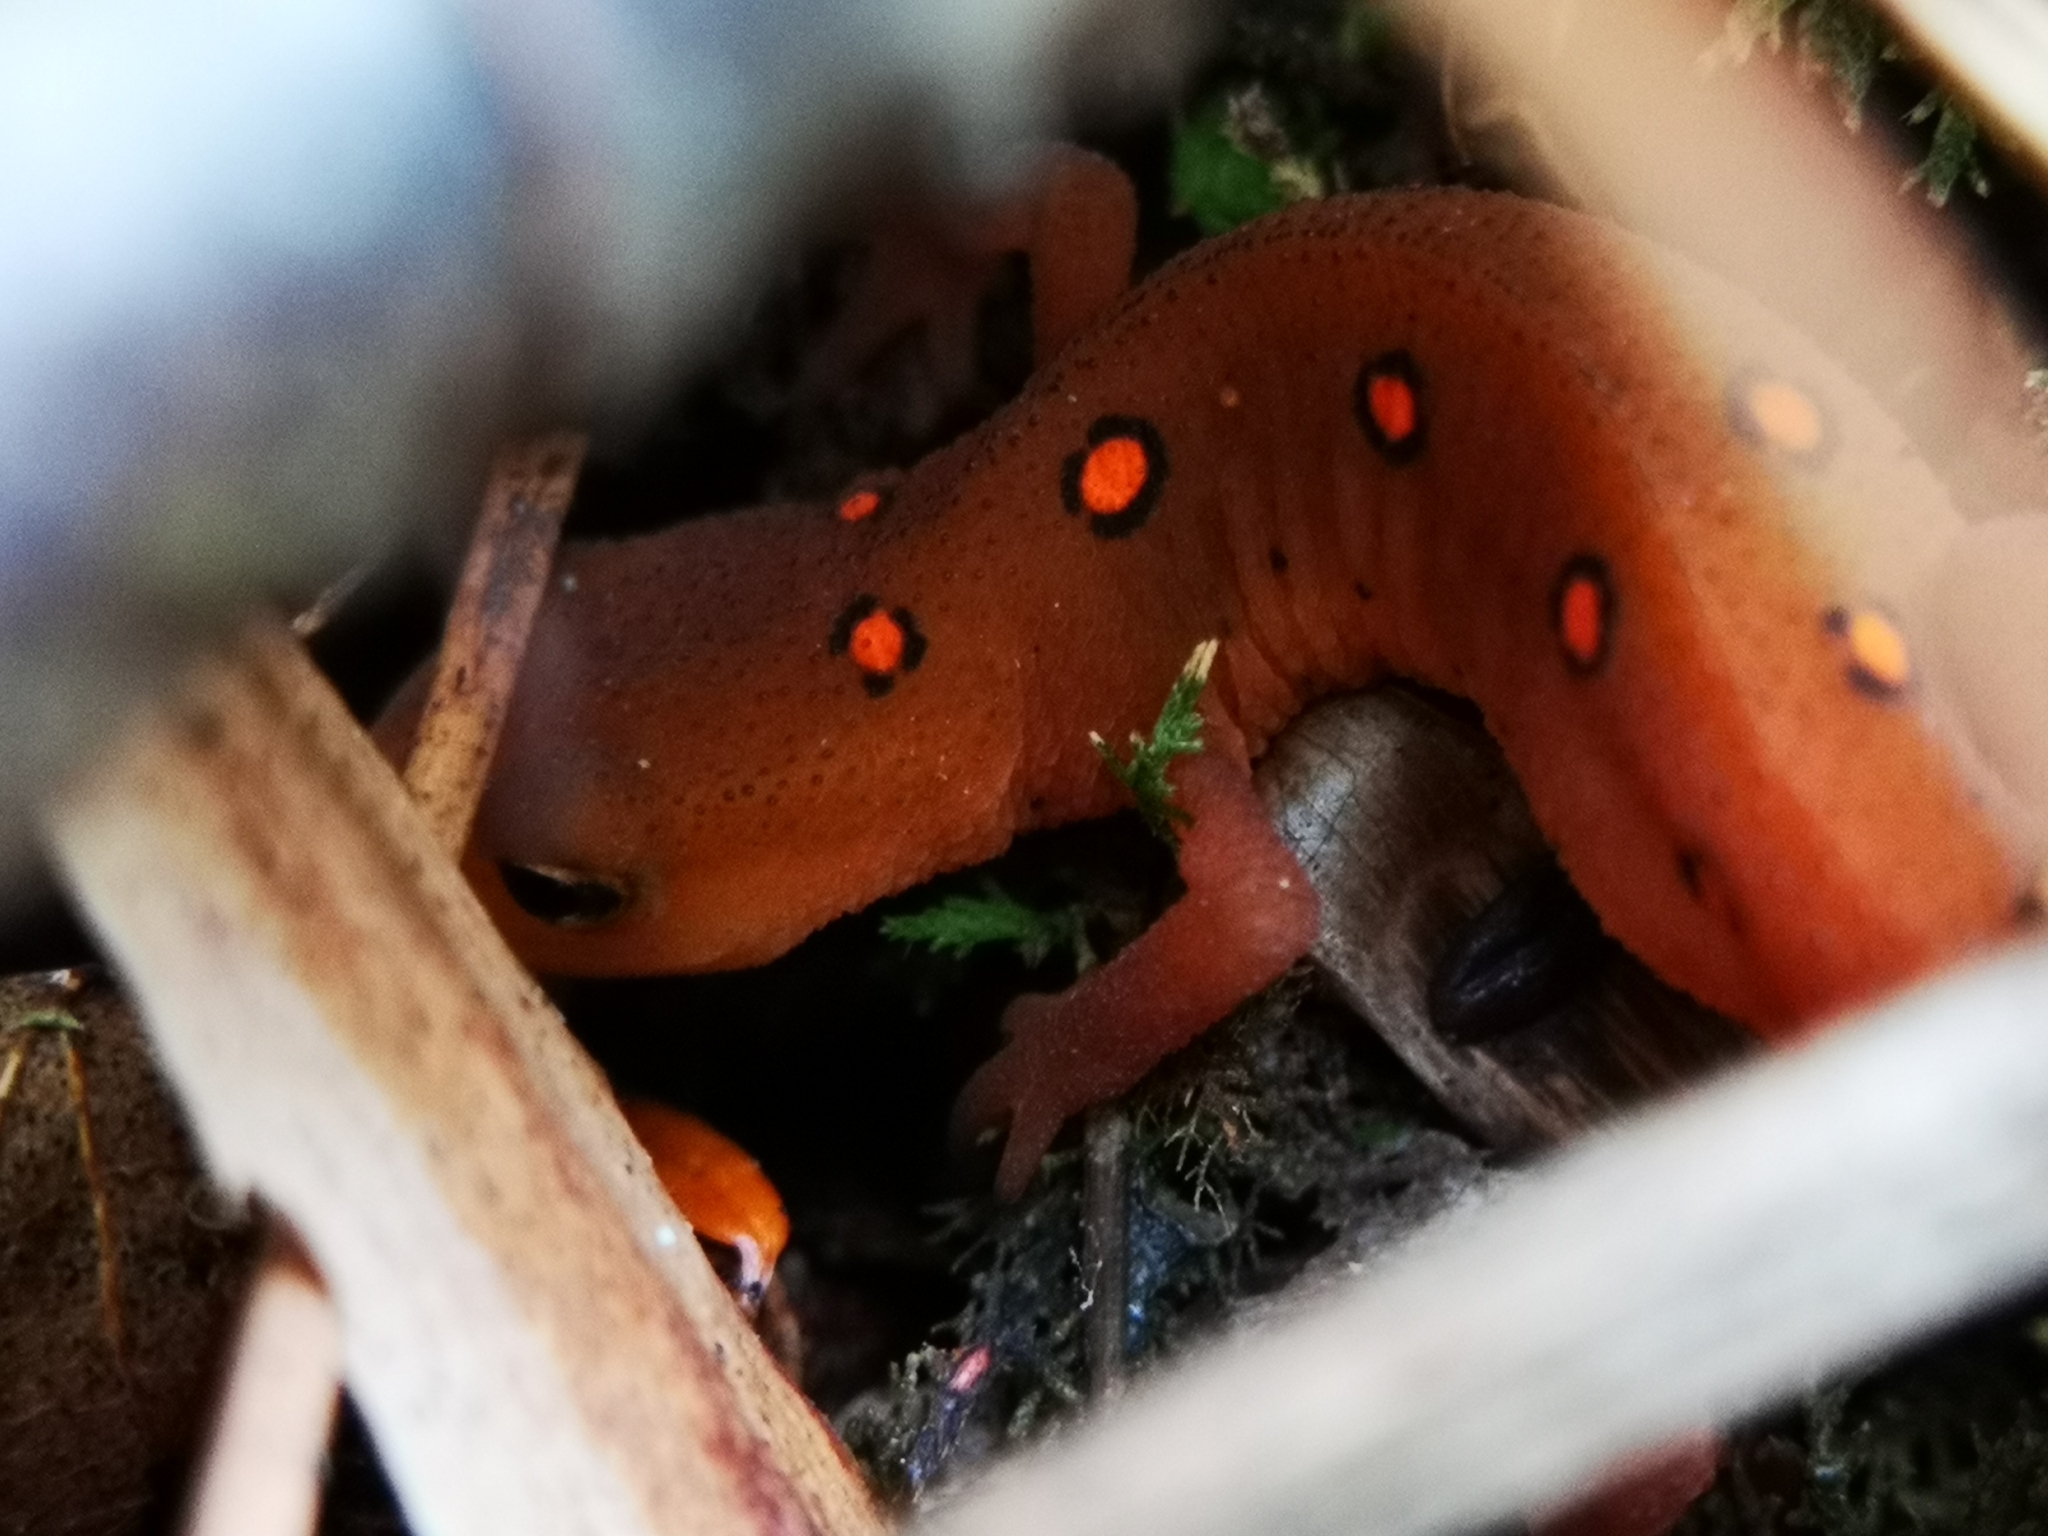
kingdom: Animalia
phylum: Chordata
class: Amphibia
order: Caudata
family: Salamandridae
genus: Notophthalmus
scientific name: Notophthalmus viridescens
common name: Eastern newt
